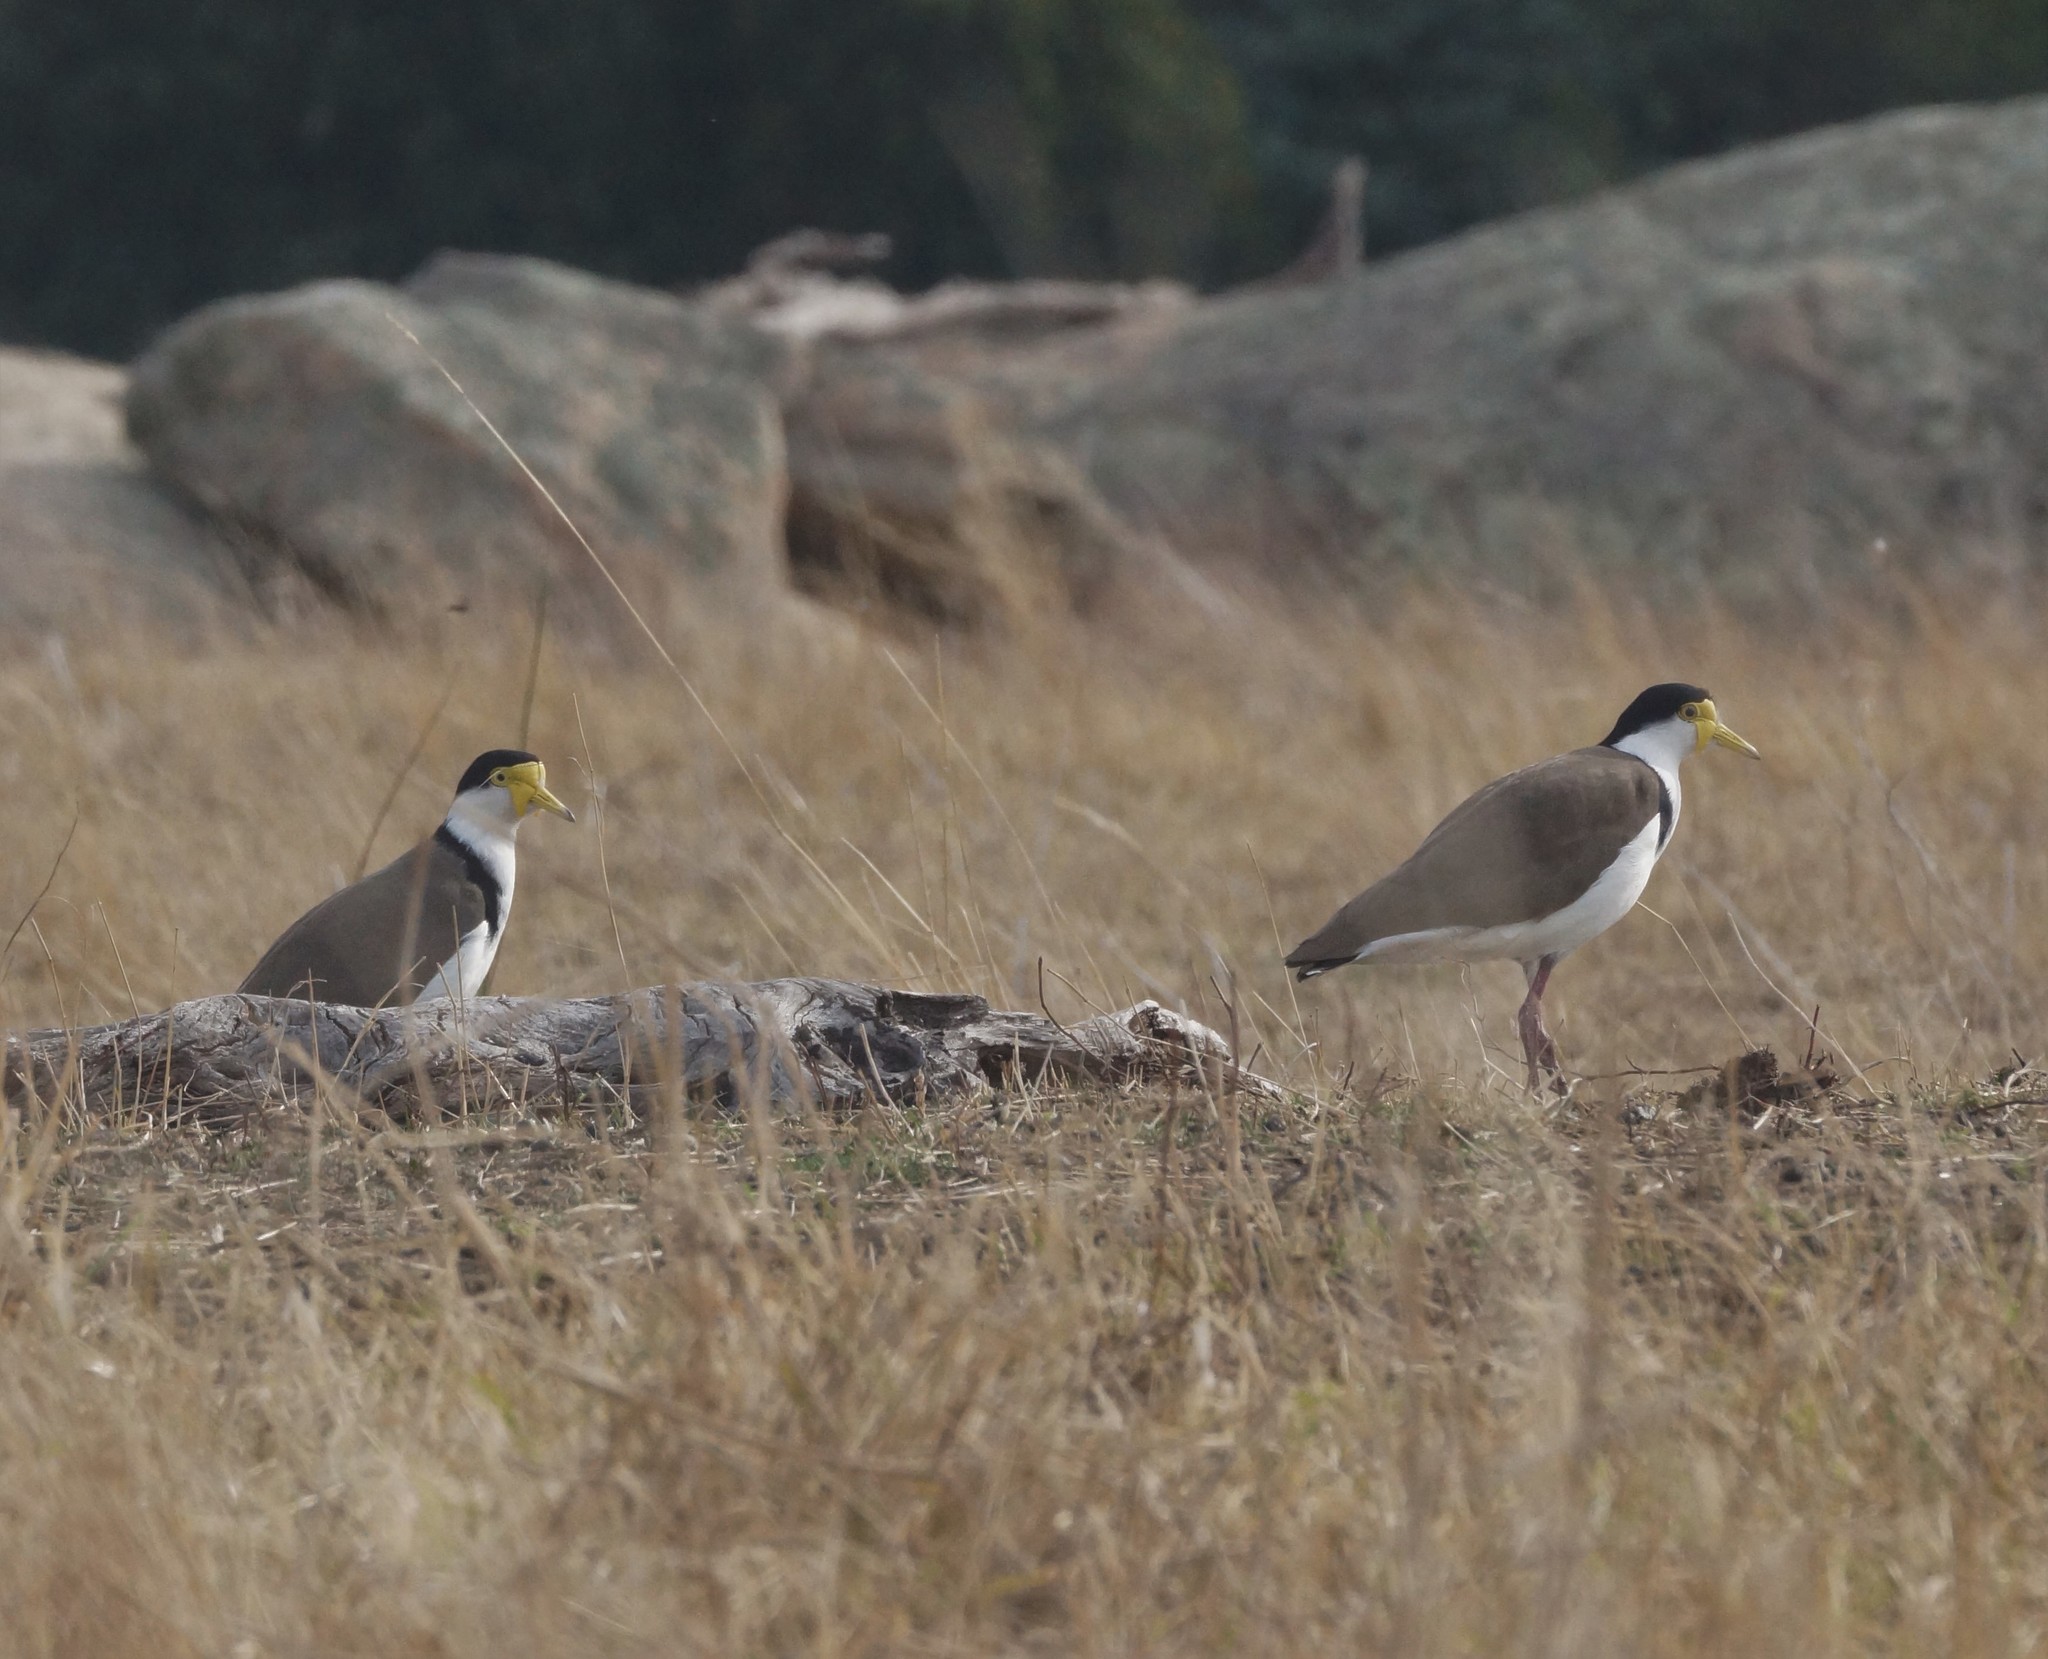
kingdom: Animalia
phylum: Chordata
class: Aves
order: Charadriiformes
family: Charadriidae
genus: Vanellus
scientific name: Vanellus miles
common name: Masked lapwing
